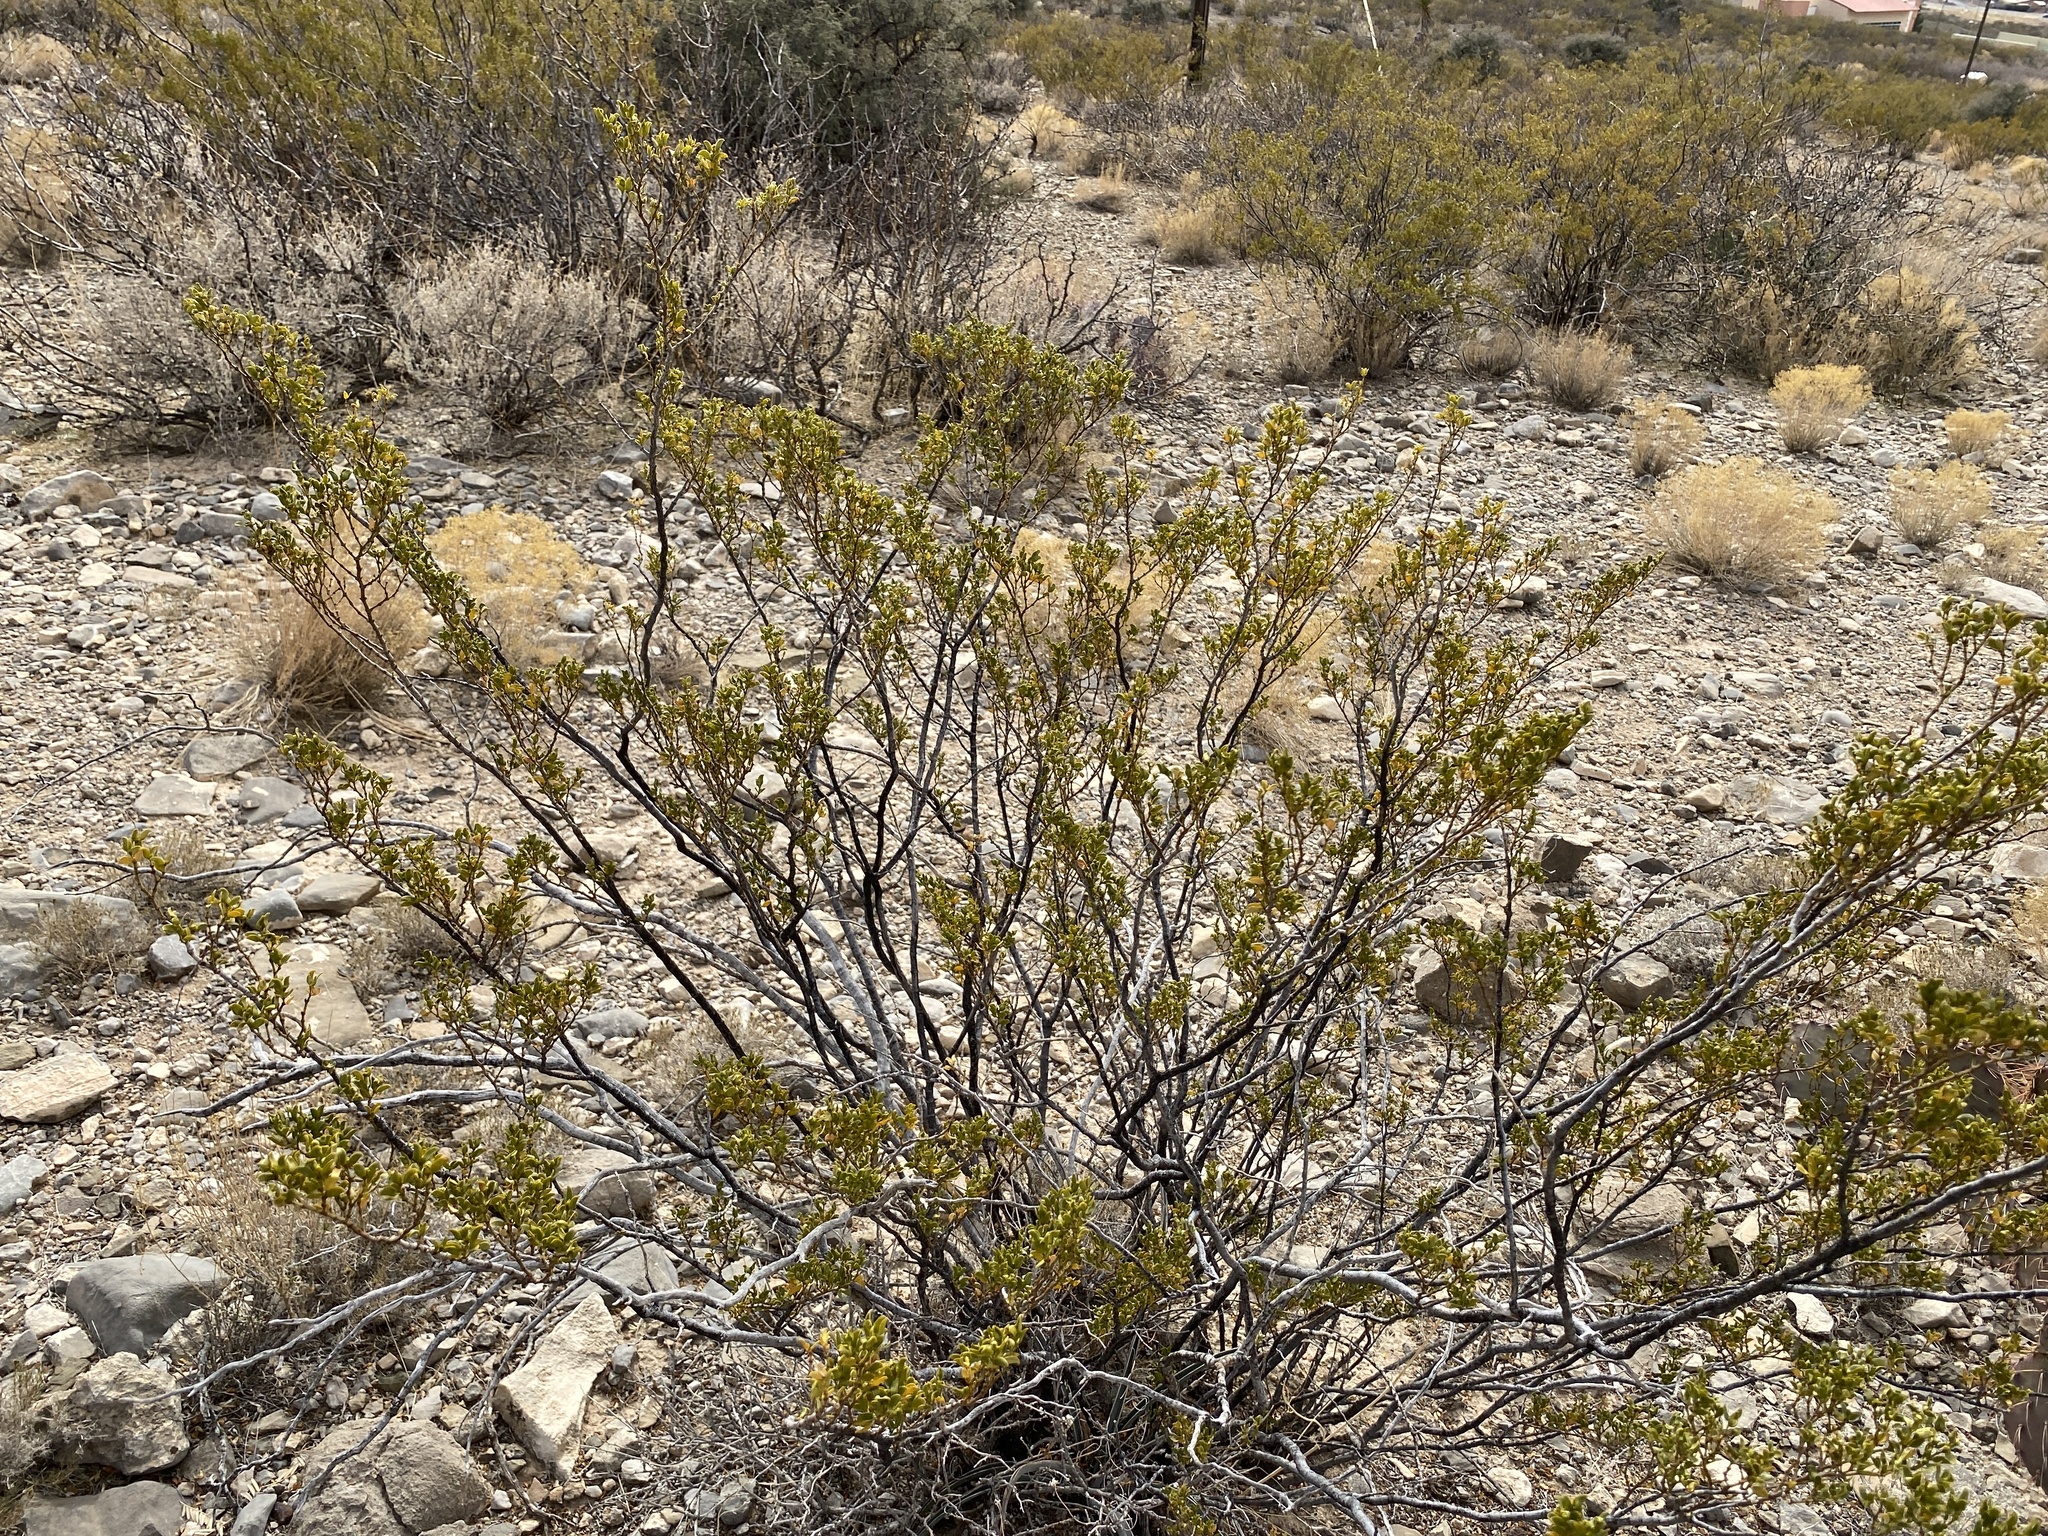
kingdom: Plantae
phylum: Tracheophyta
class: Magnoliopsida
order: Zygophyllales
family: Zygophyllaceae
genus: Larrea
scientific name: Larrea tridentata
